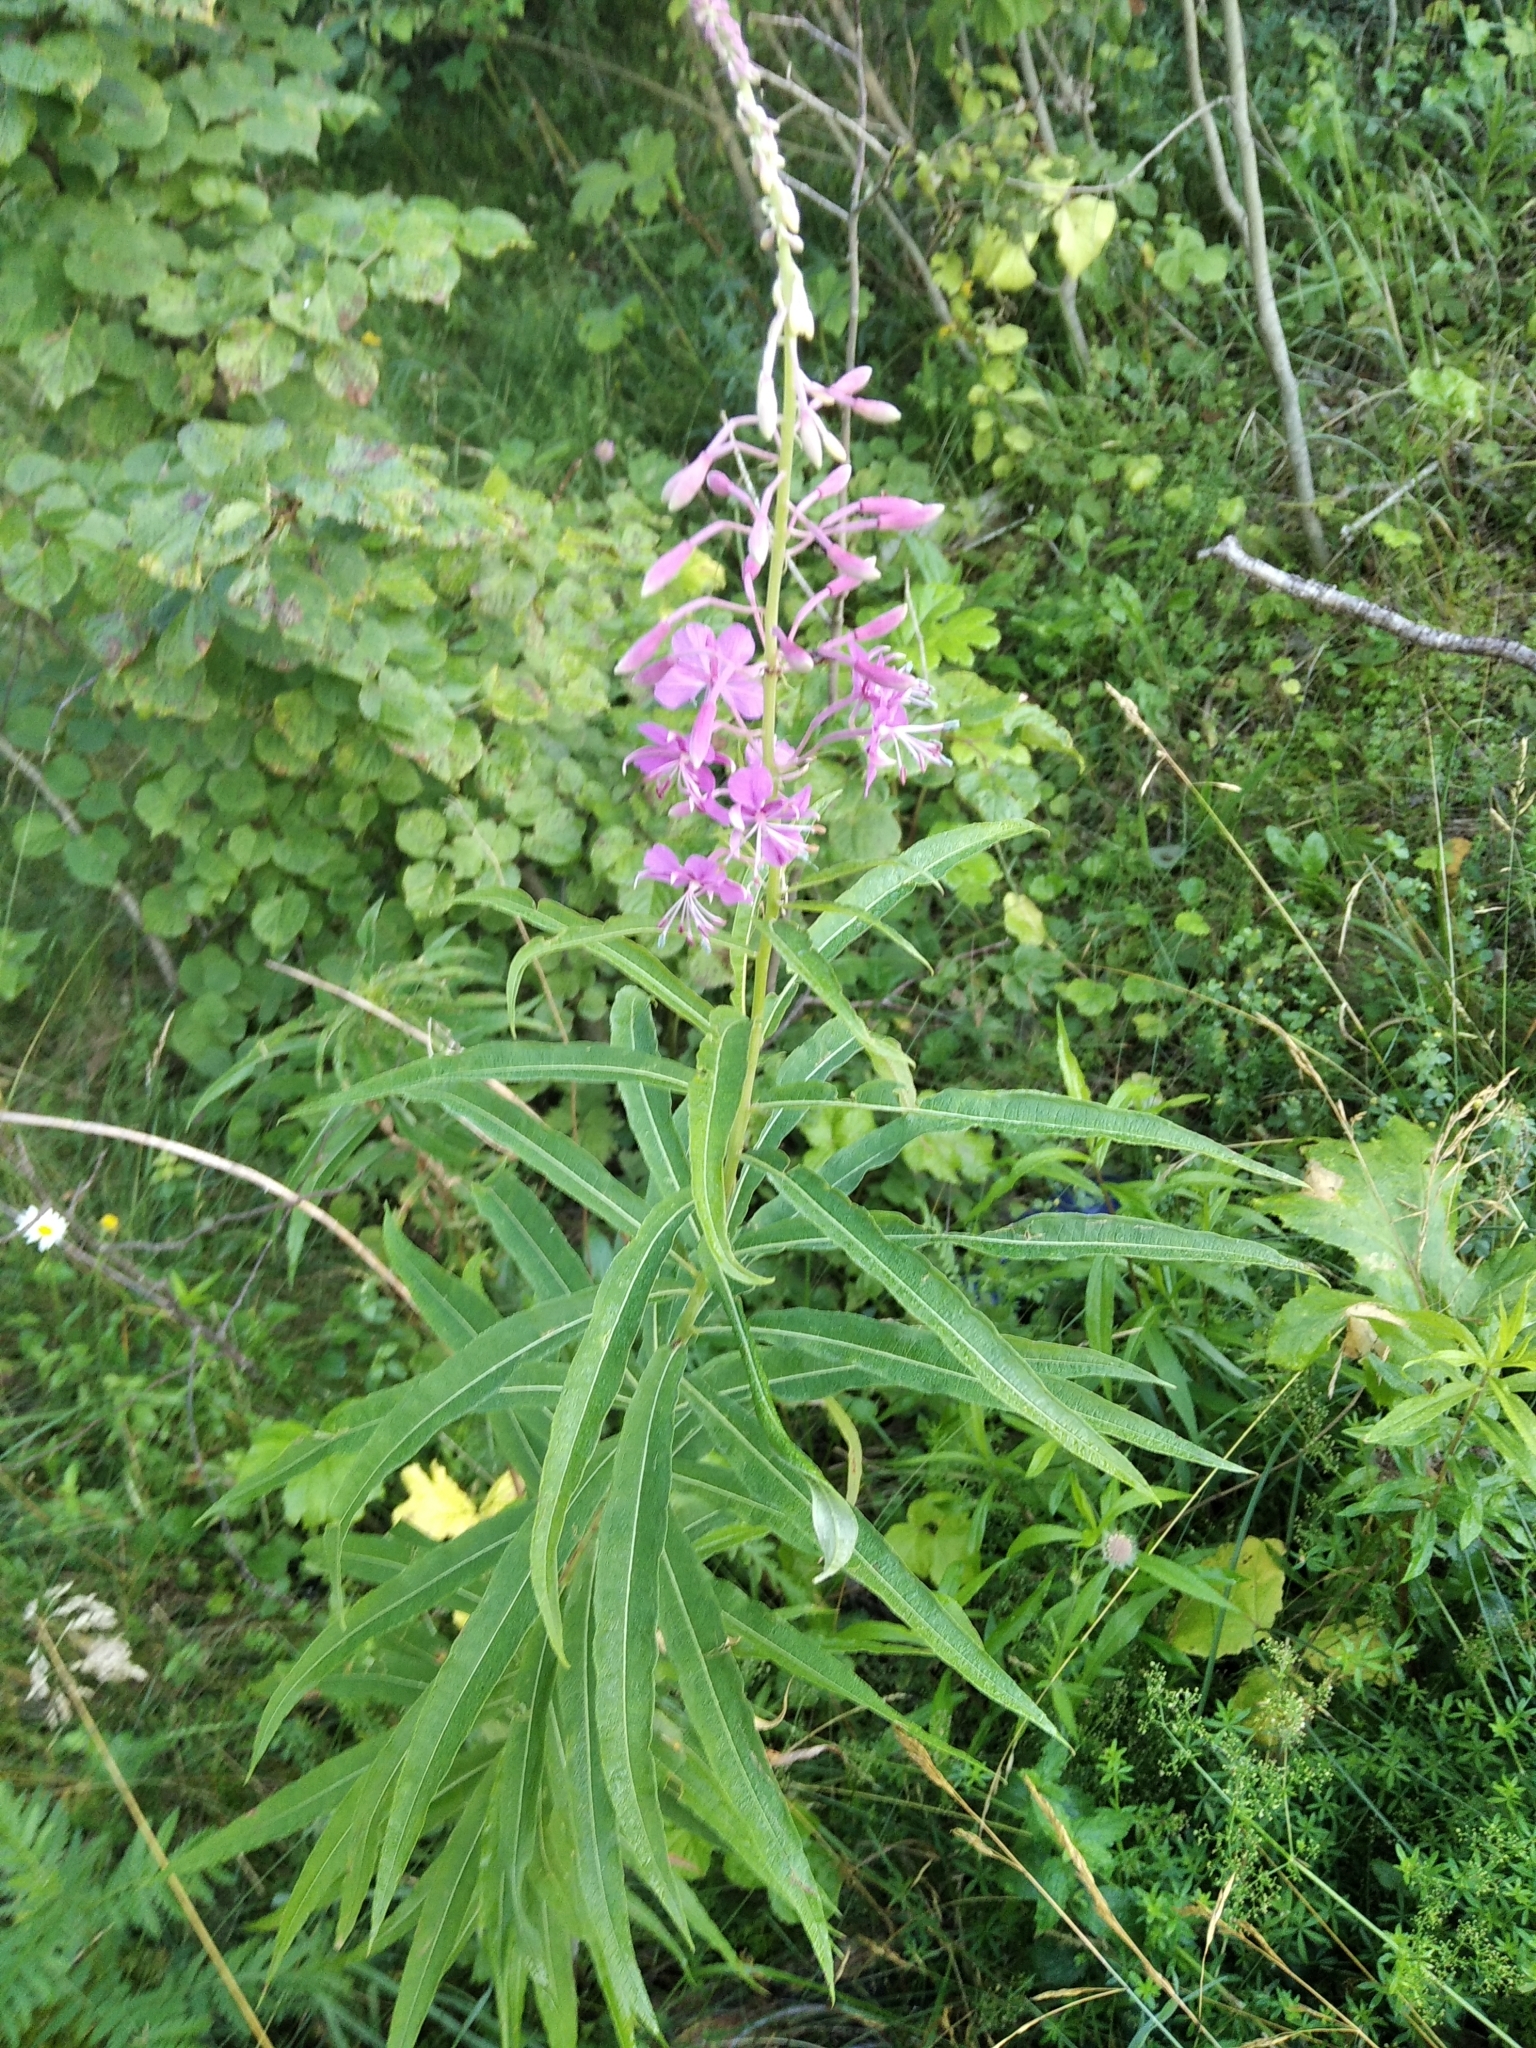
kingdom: Plantae
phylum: Tracheophyta
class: Magnoliopsida
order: Myrtales
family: Onagraceae
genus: Chamaenerion
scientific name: Chamaenerion angustifolium
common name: Fireweed
